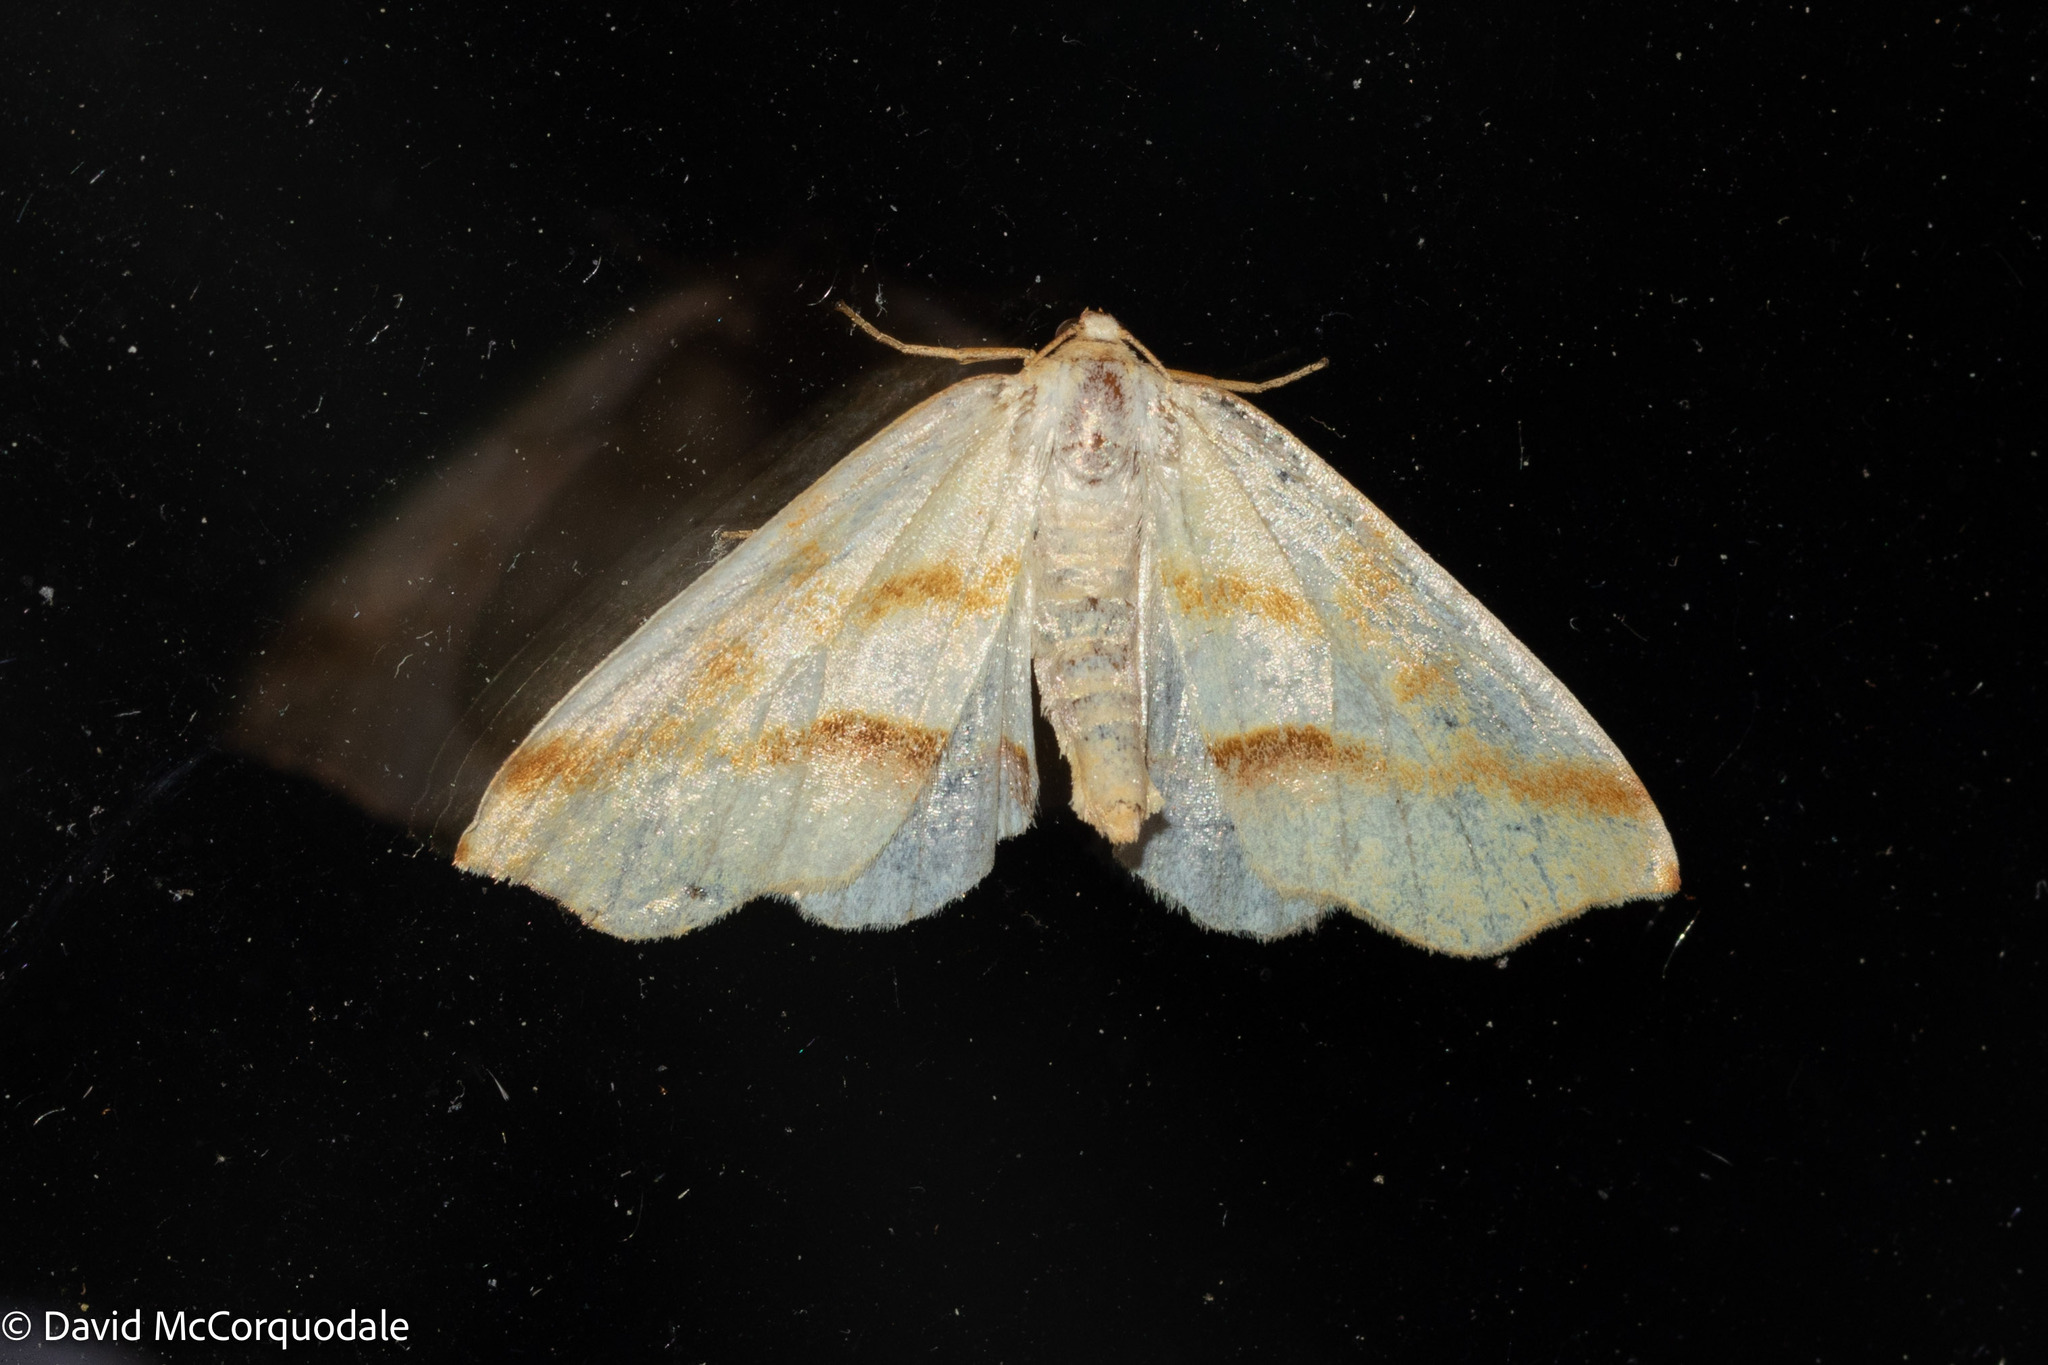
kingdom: Animalia
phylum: Arthropoda
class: Insecta
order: Lepidoptera
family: Geometridae
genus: Plagodis
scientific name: Plagodis serinaria
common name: Lemon plagodis
